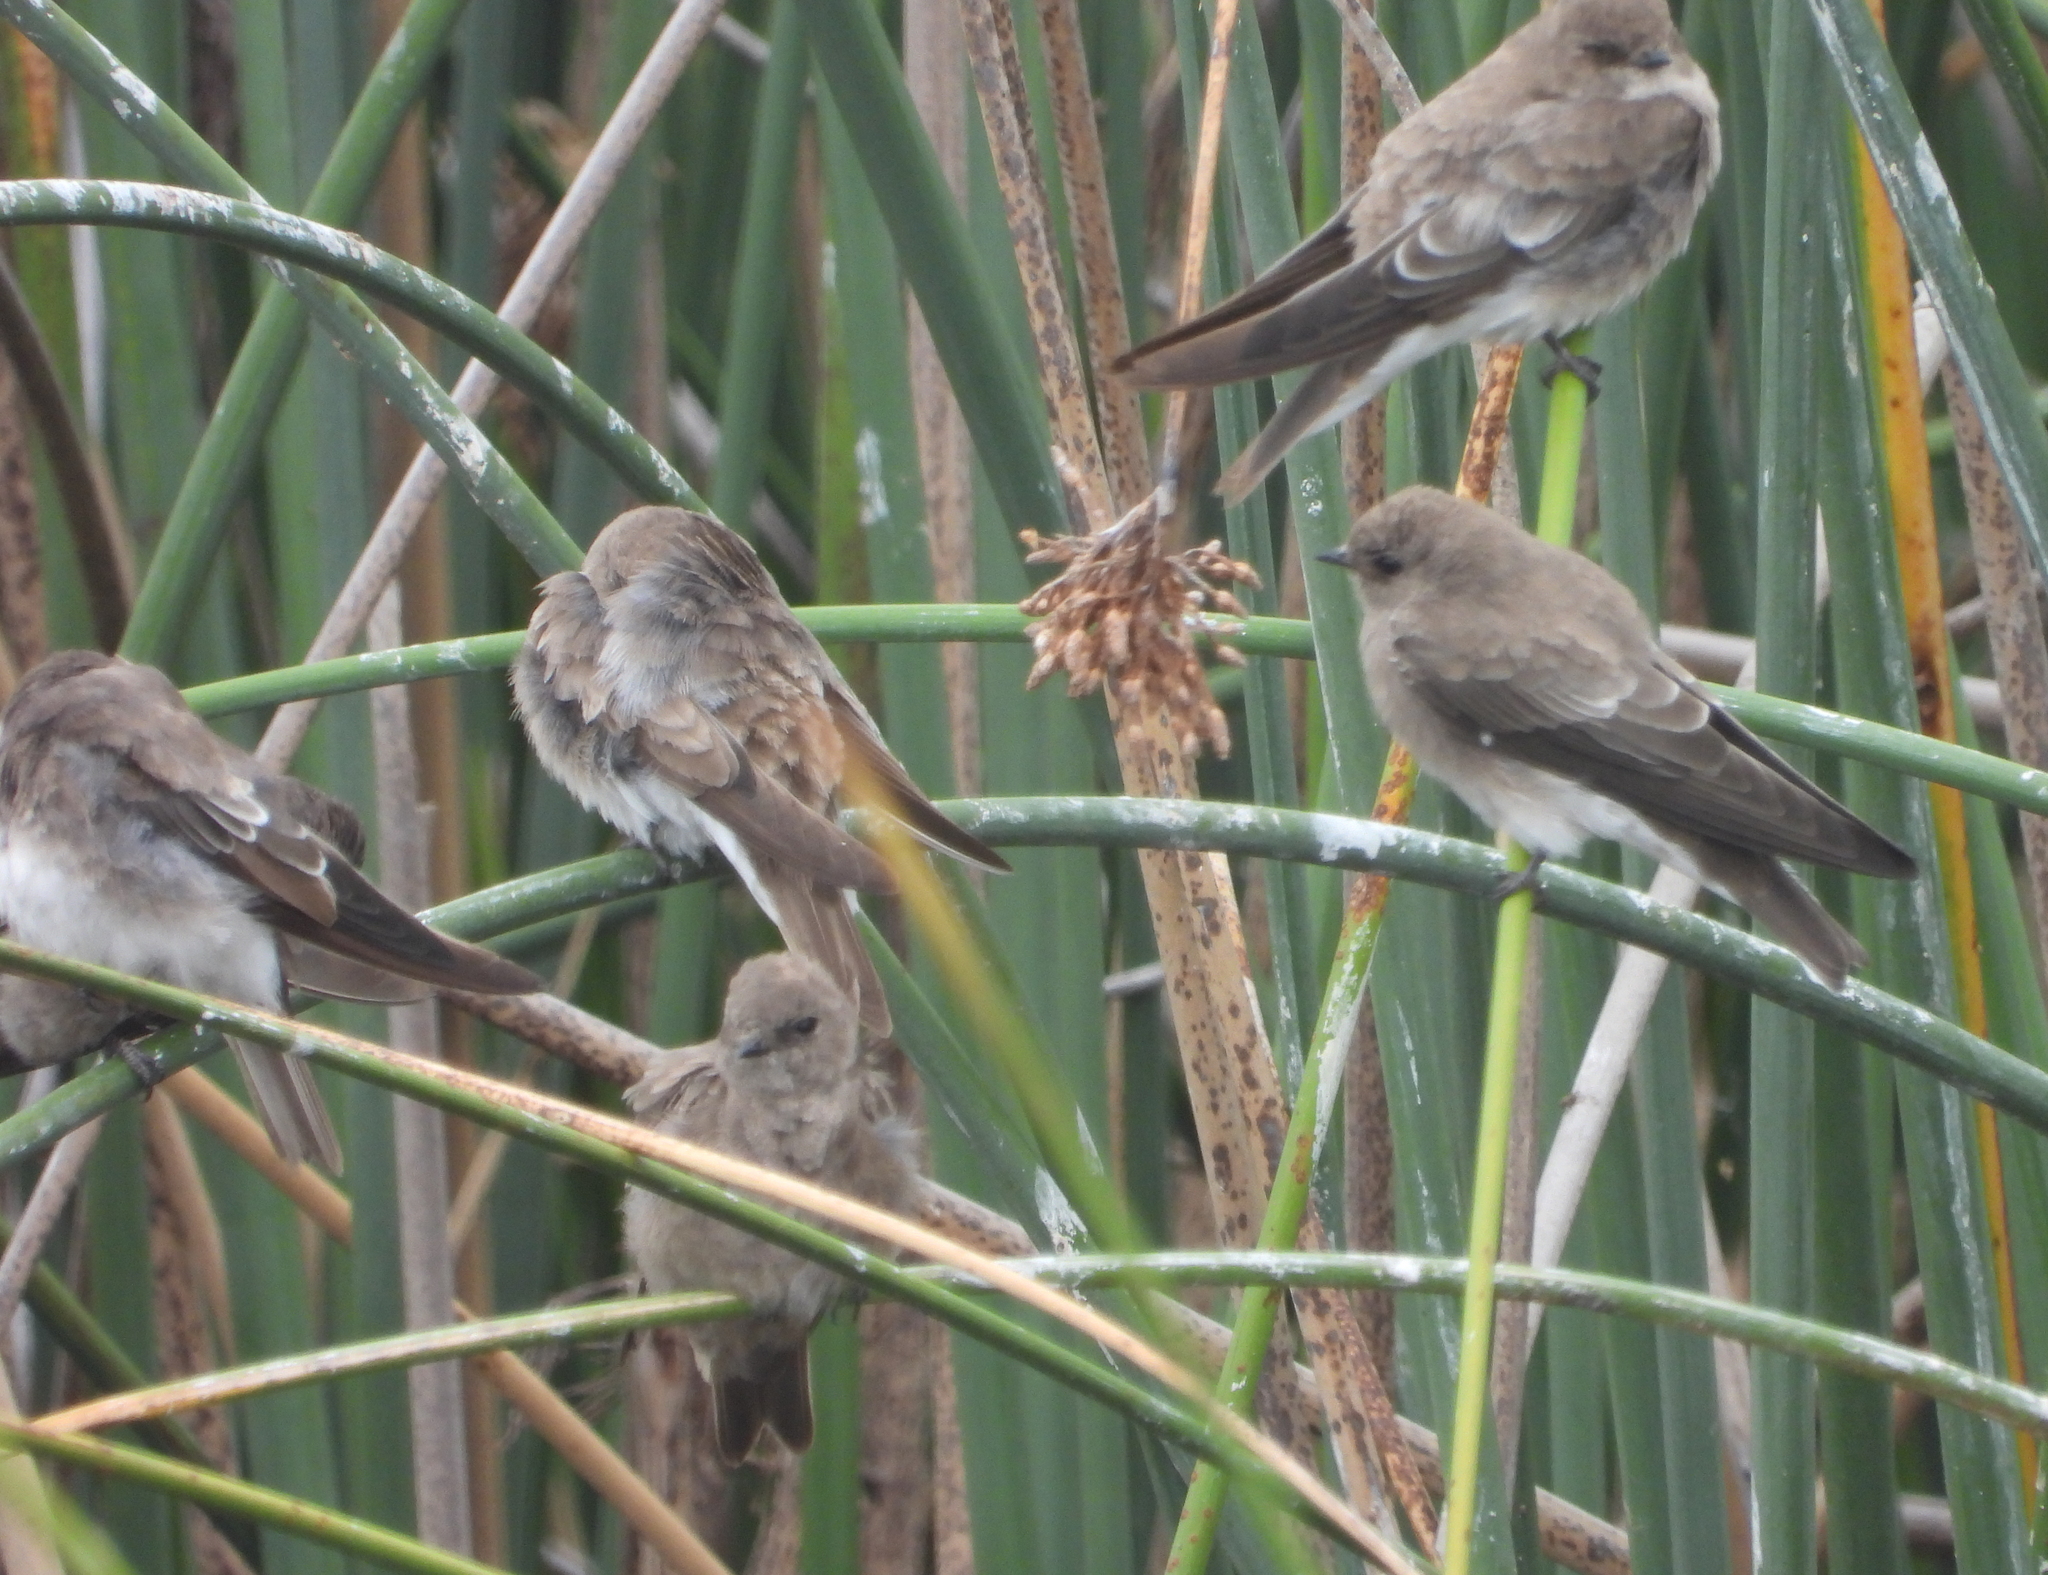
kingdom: Animalia
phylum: Chordata
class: Aves
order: Passeriformes
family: Hirundinidae
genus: Riparia
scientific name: Riparia paludicola
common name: Brown-throated martin
